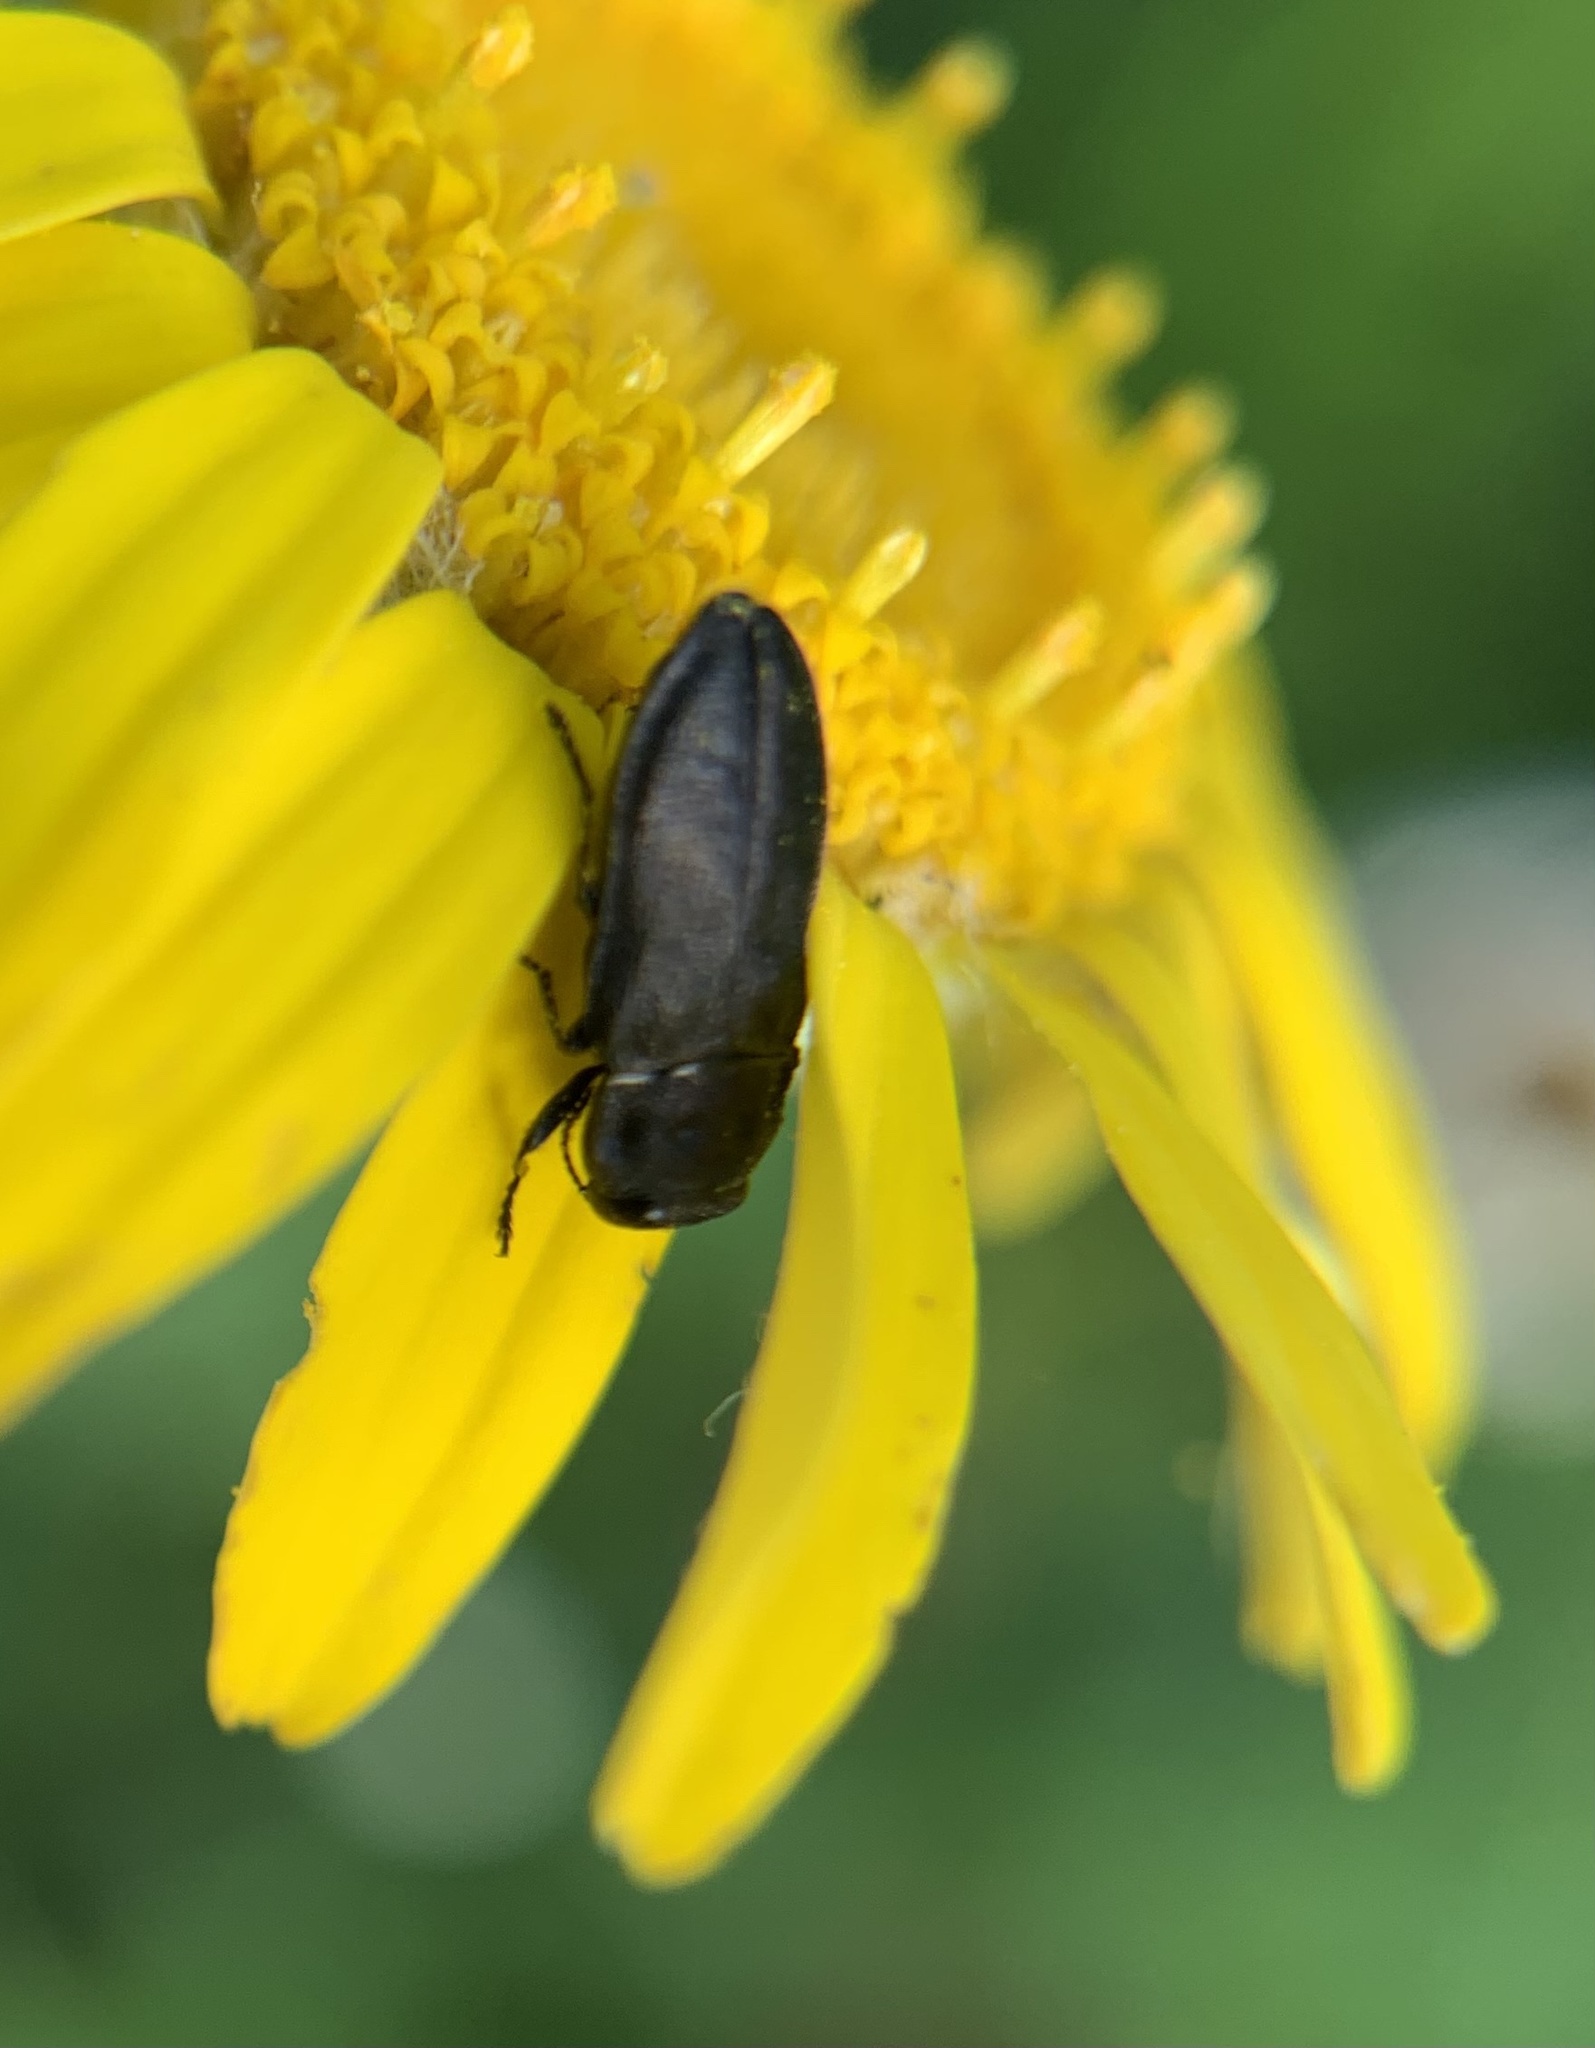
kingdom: Animalia
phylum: Arthropoda
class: Insecta
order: Coleoptera
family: Buprestidae
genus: Anthaxia
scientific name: Anthaxia quadripunctata
